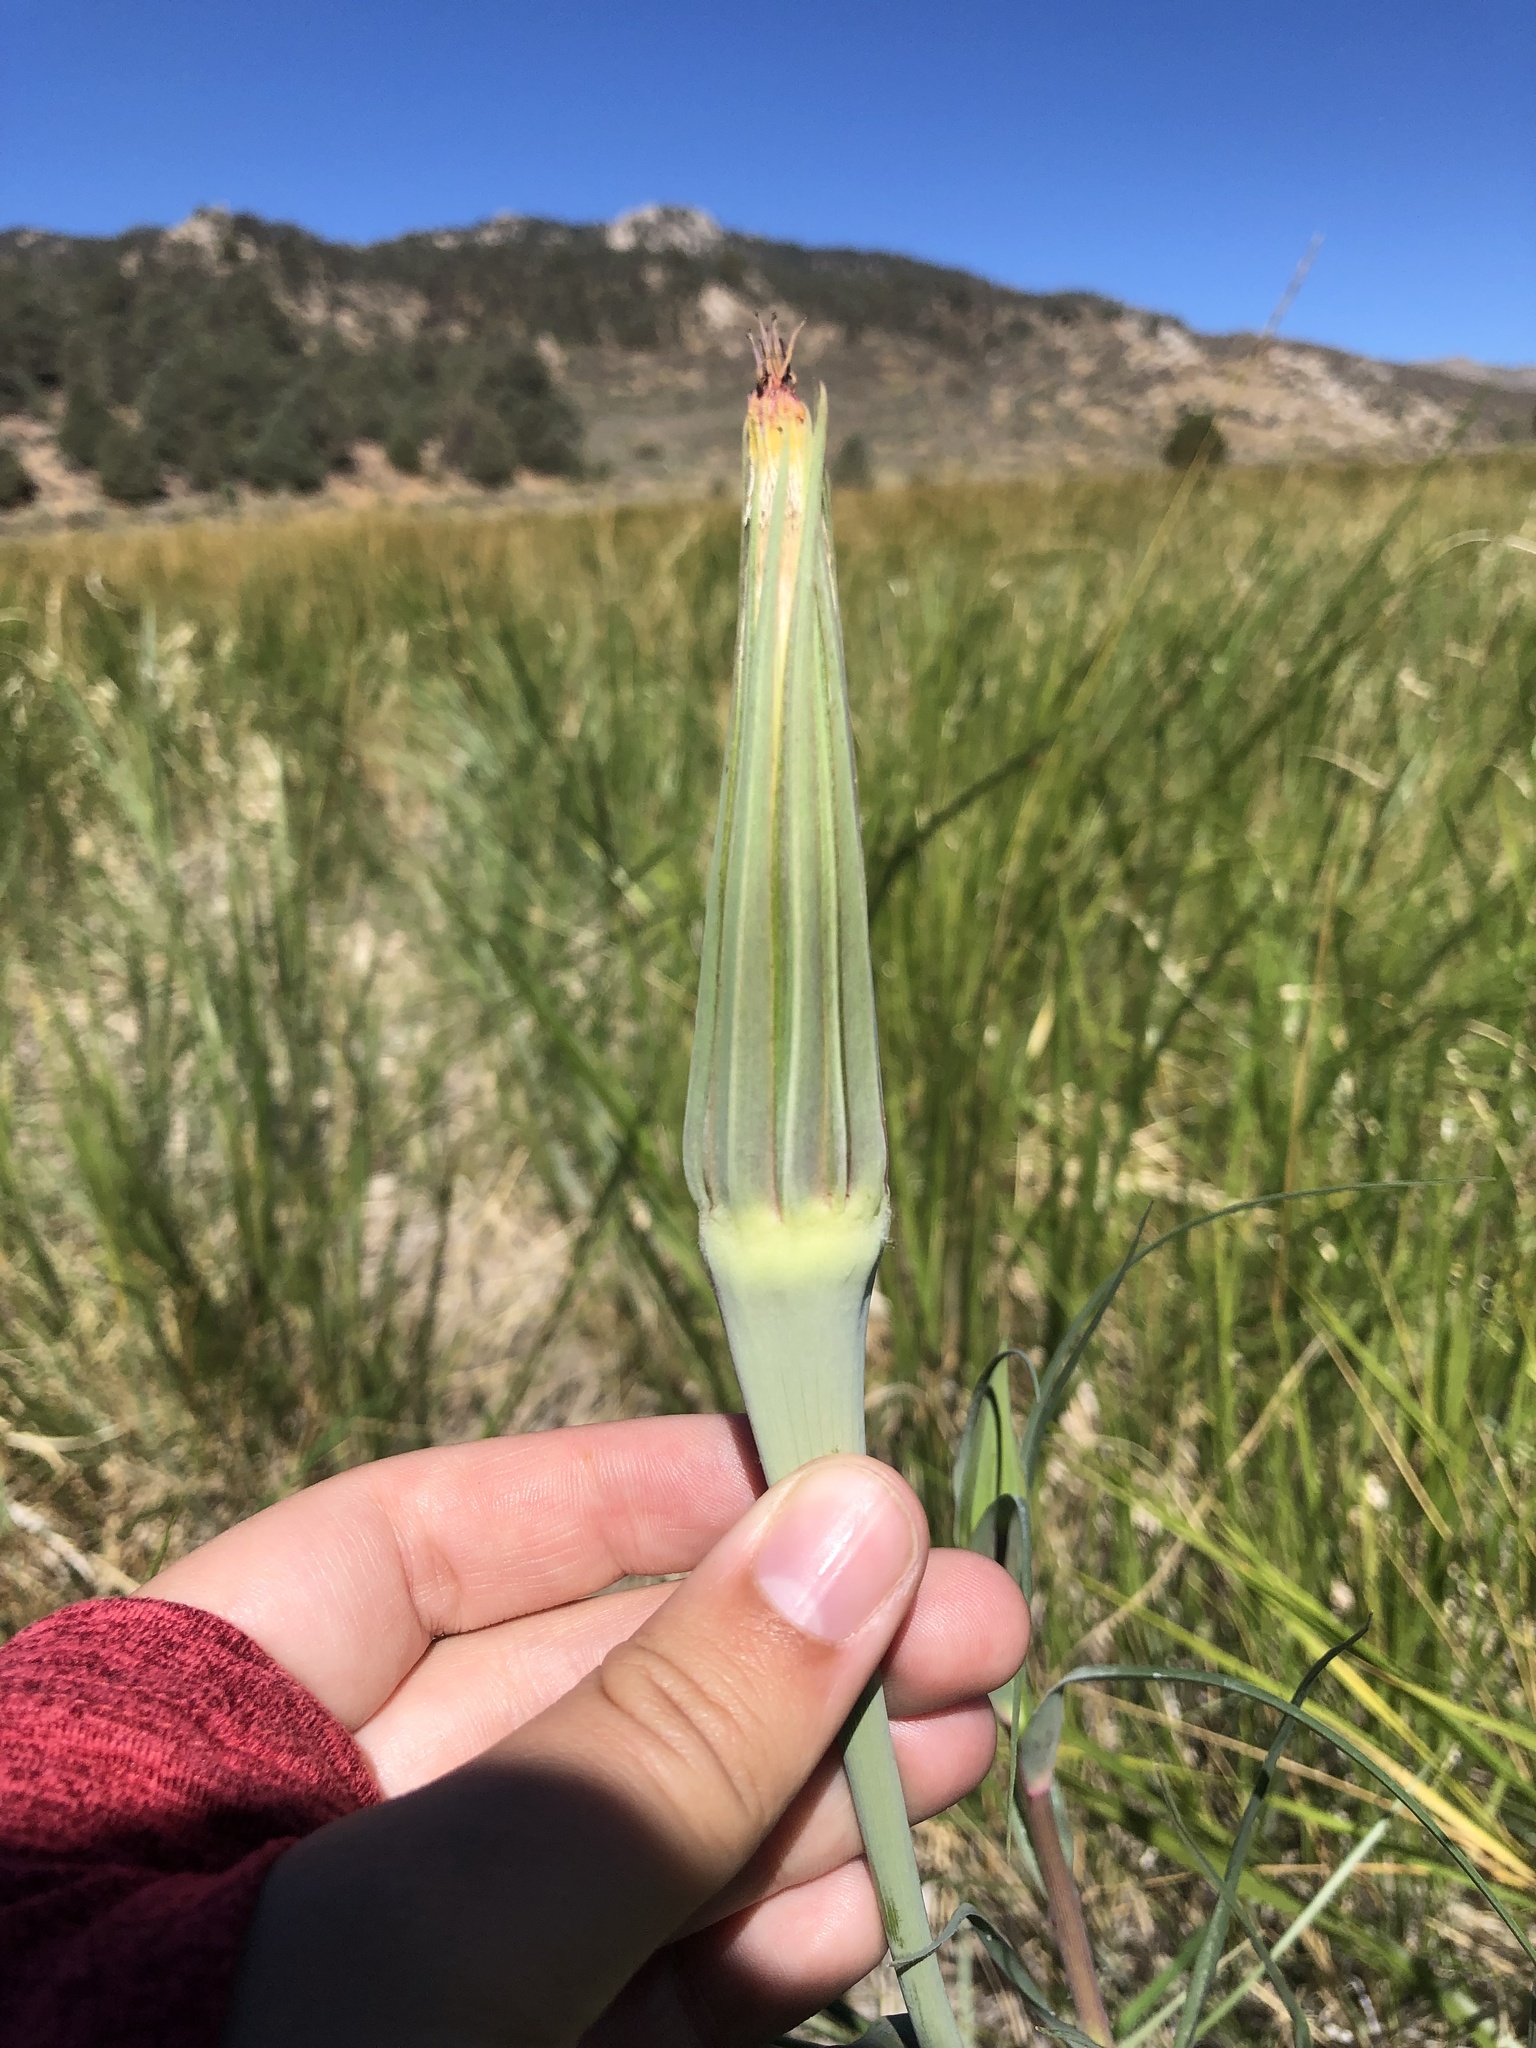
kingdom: Plantae
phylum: Tracheophyta
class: Magnoliopsida
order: Asterales
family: Asteraceae
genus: Tragopogon
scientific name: Tragopogon dubius
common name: Yellow salsify
